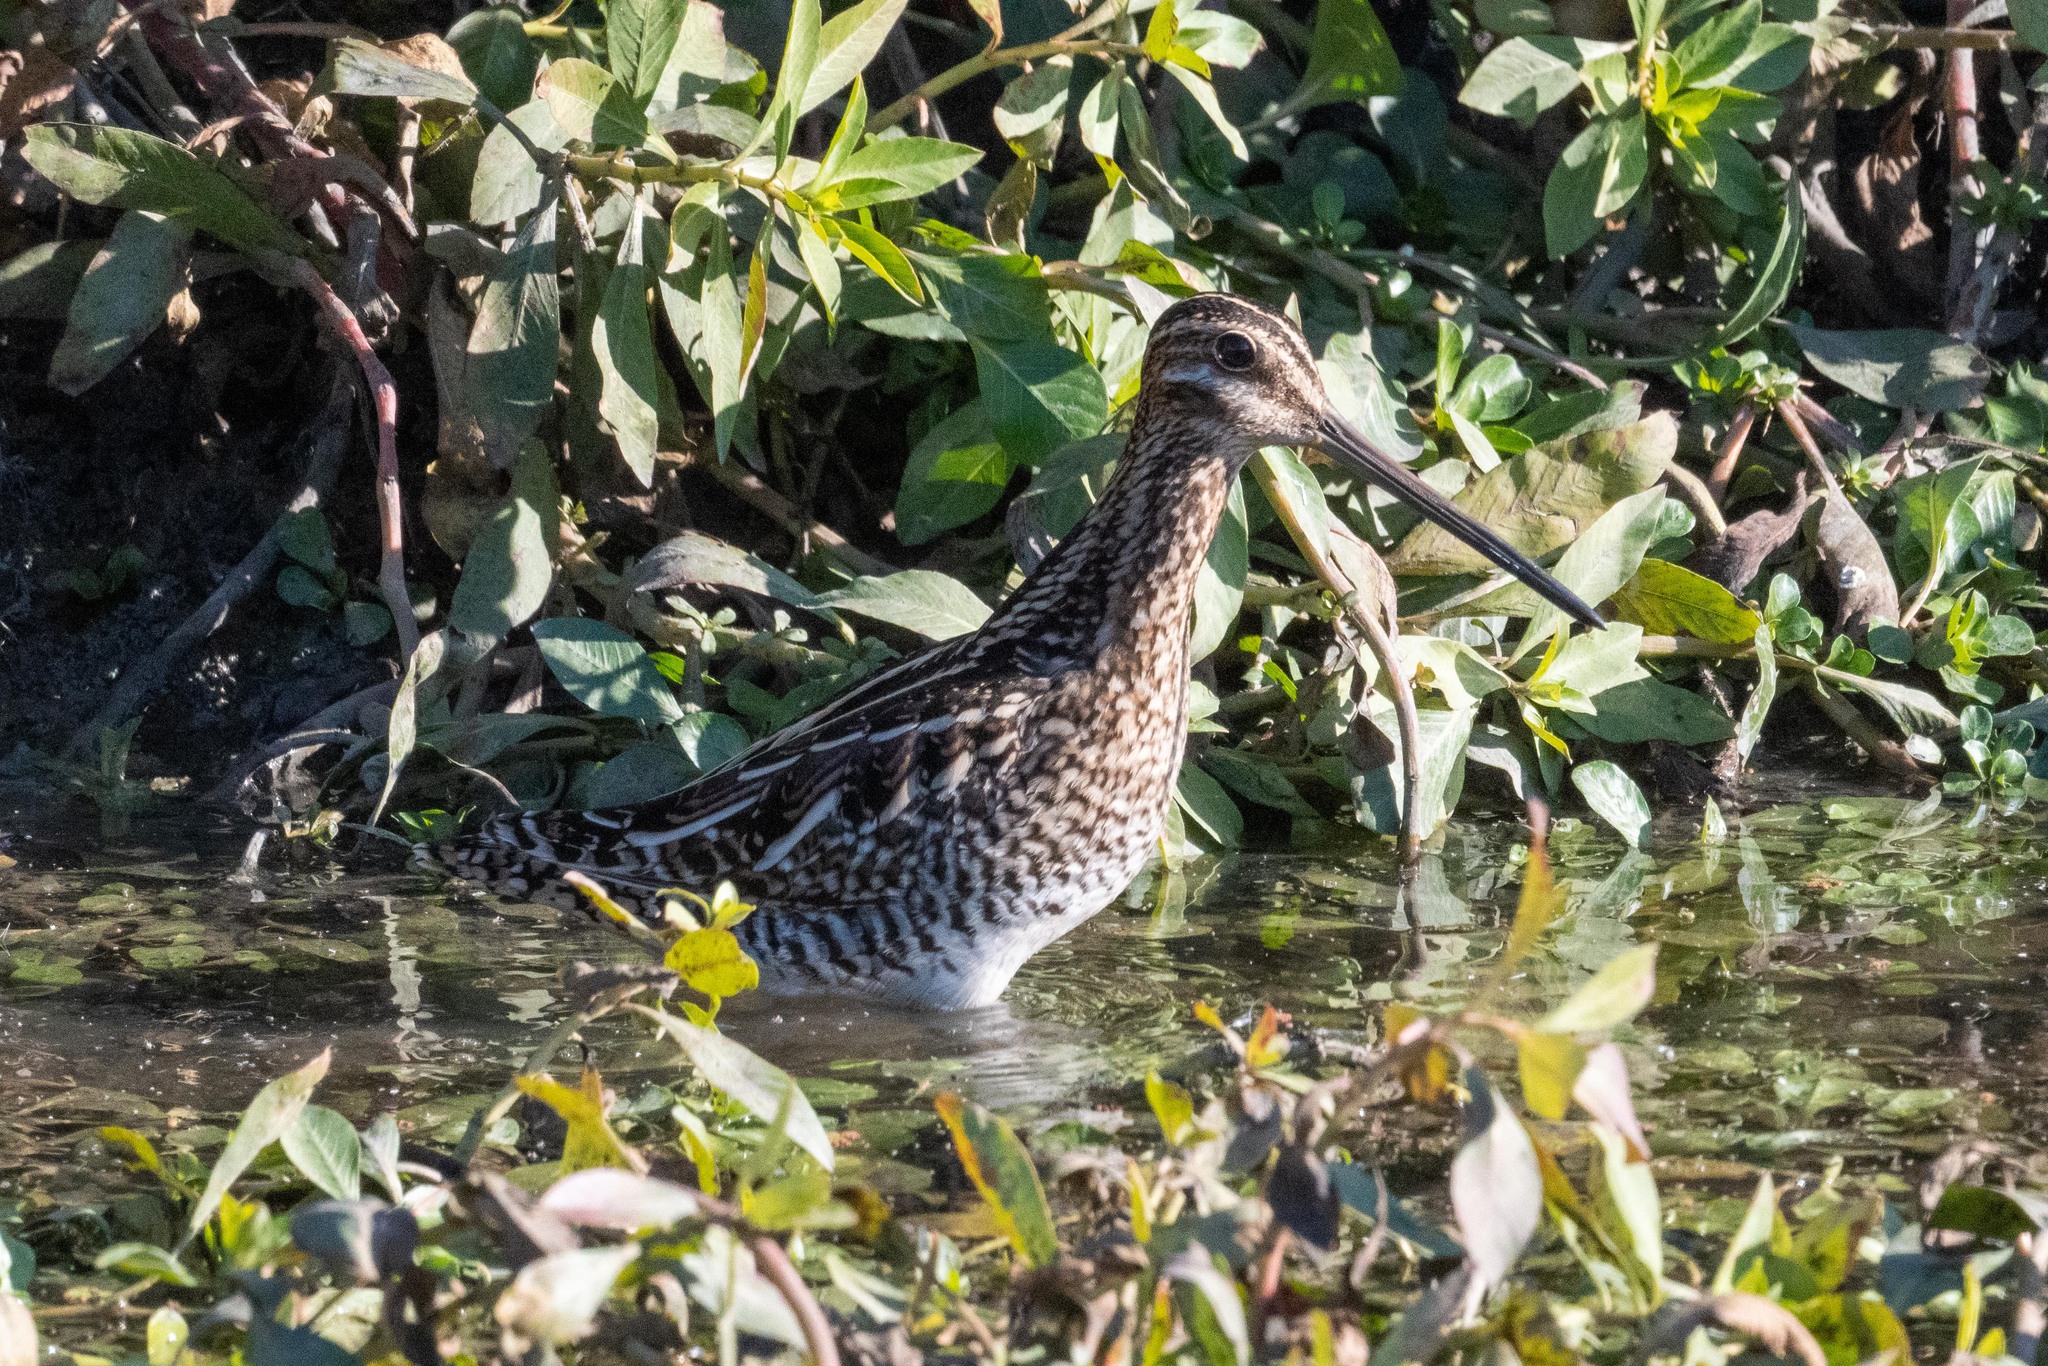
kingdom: Animalia
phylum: Chordata
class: Aves
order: Charadriiformes
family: Scolopacidae
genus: Gallinago
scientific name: Gallinago delicata
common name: Wilson's snipe
